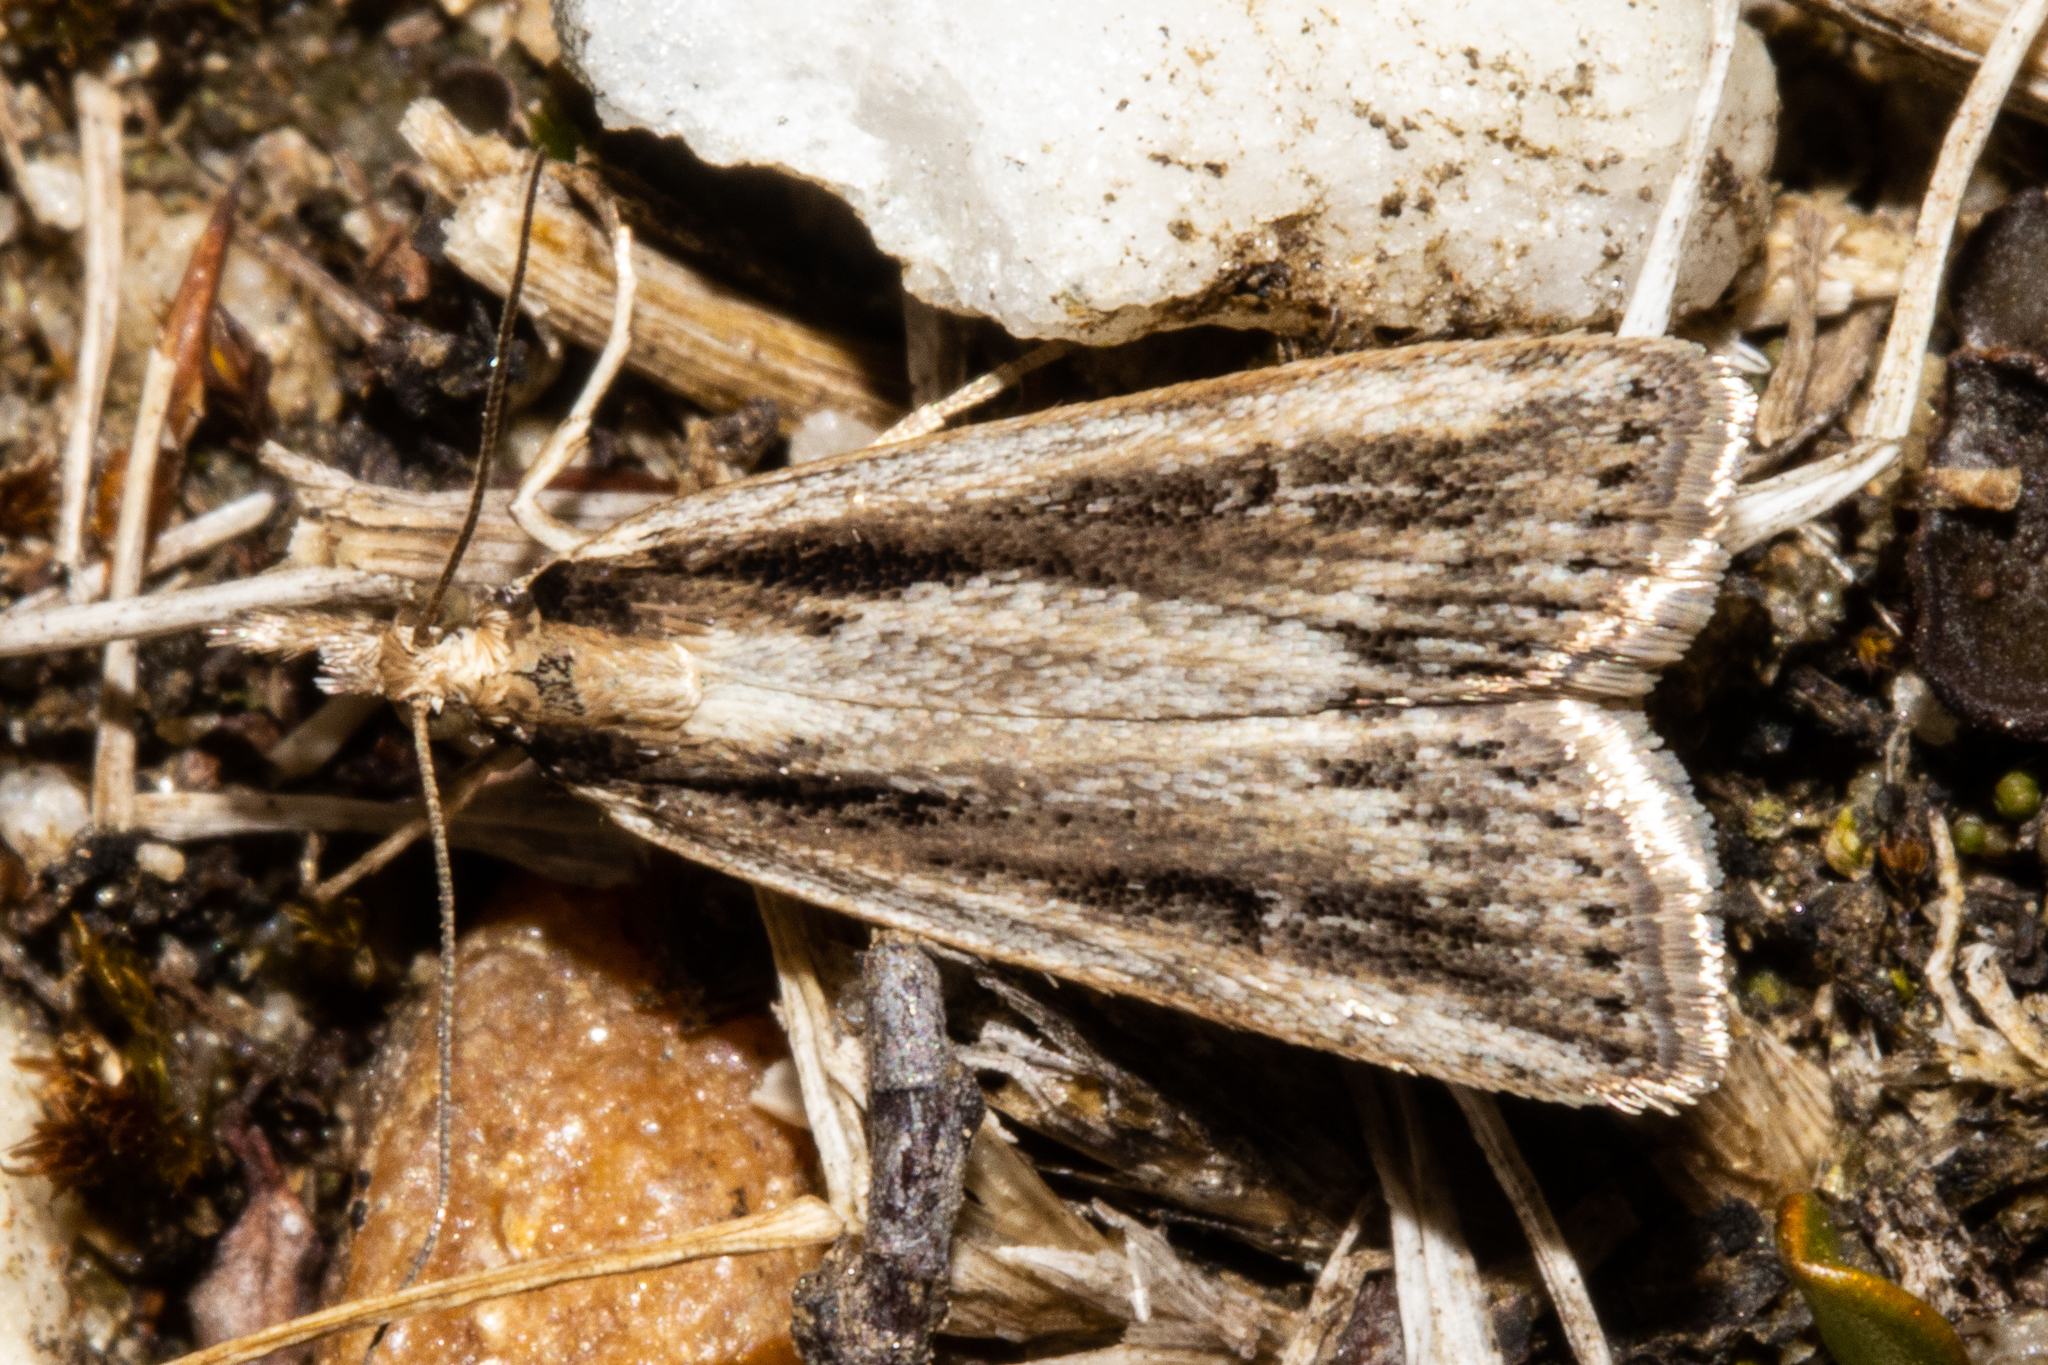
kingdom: Animalia
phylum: Arthropoda
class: Insecta
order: Lepidoptera
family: Crambidae
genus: Eudonia
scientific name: Eudonia sabulosella
